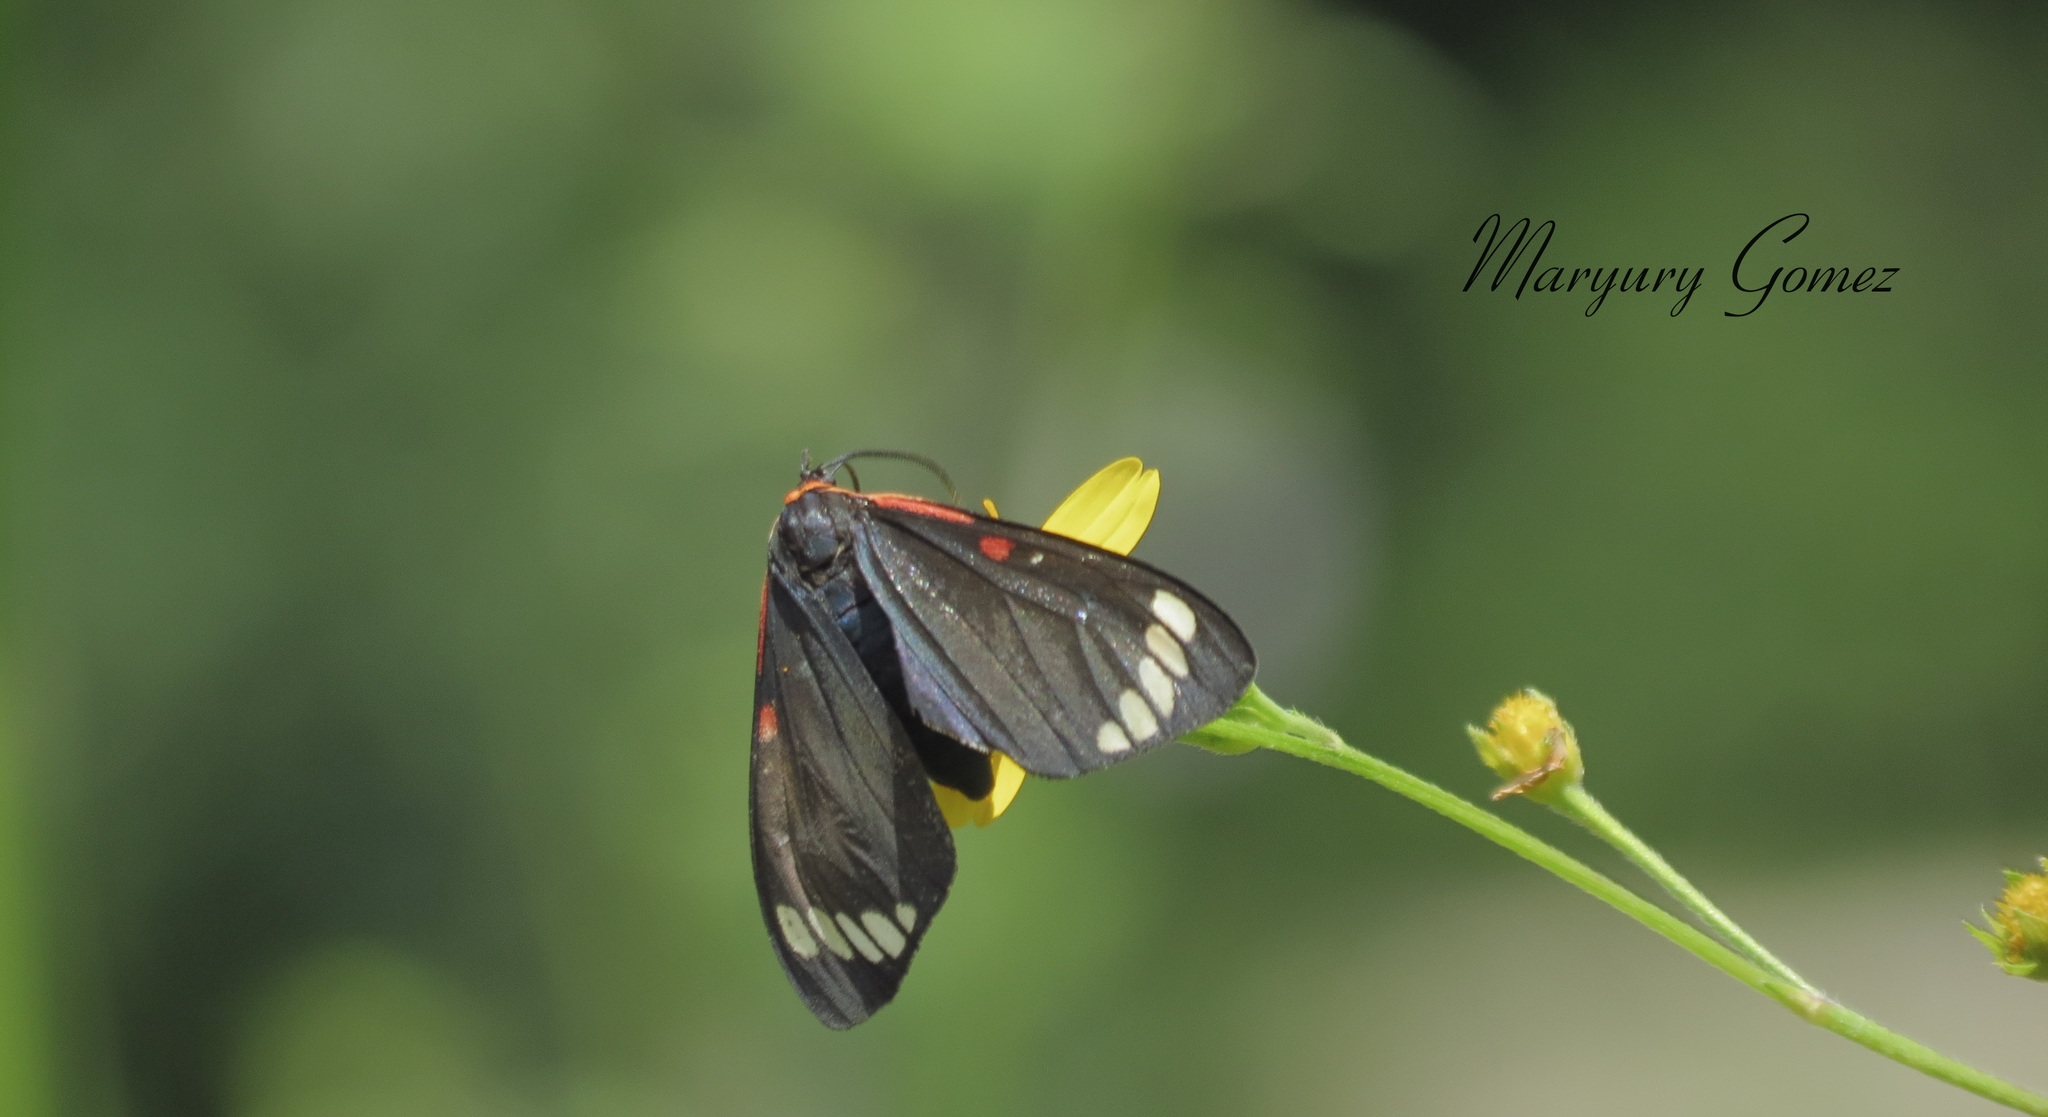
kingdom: Animalia
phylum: Arthropoda
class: Insecta
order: Lepidoptera
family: Erebidae
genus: Phaloesia
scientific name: Phaloesia saucia
